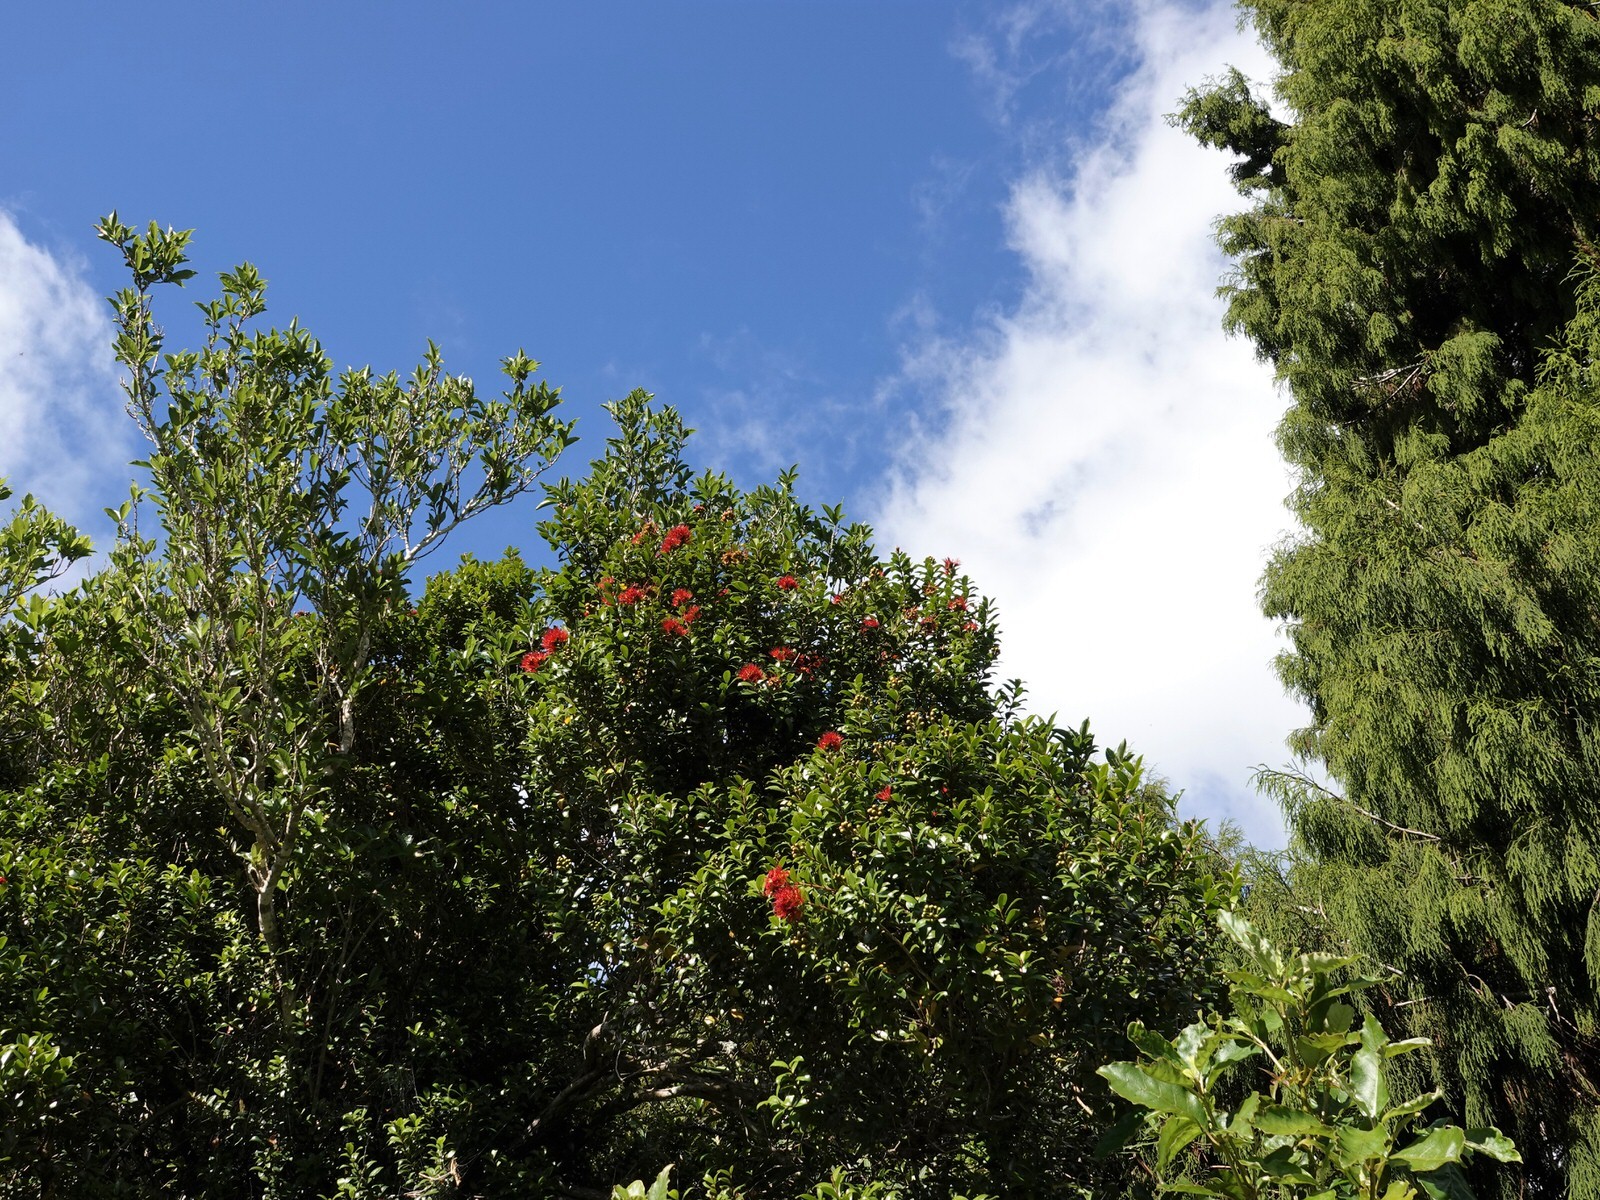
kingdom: Plantae
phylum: Tracheophyta
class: Magnoliopsida
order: Myrtales
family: Myrtaceae
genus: Metrosideros
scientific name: Metrosideros fulgens
